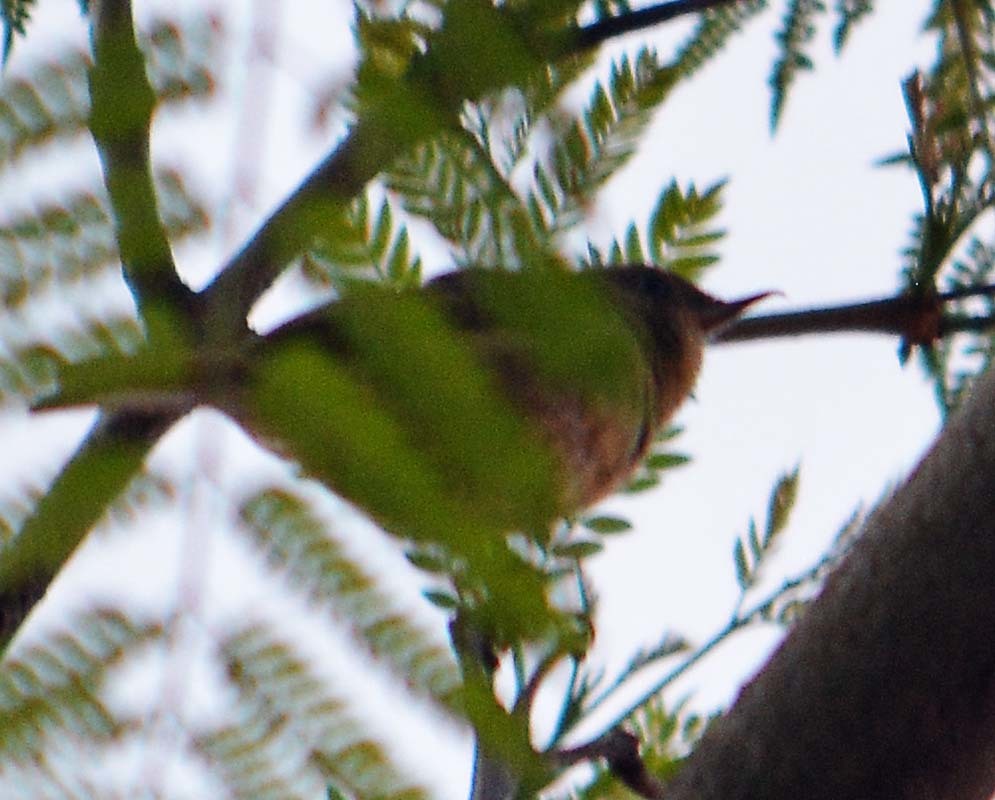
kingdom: Animalia
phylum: Chordata
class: Aves
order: Passeriformes
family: Thraupidae
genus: Diglossa
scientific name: Diglossa baritula
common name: Cinnamon-bellied flowerpiercer
